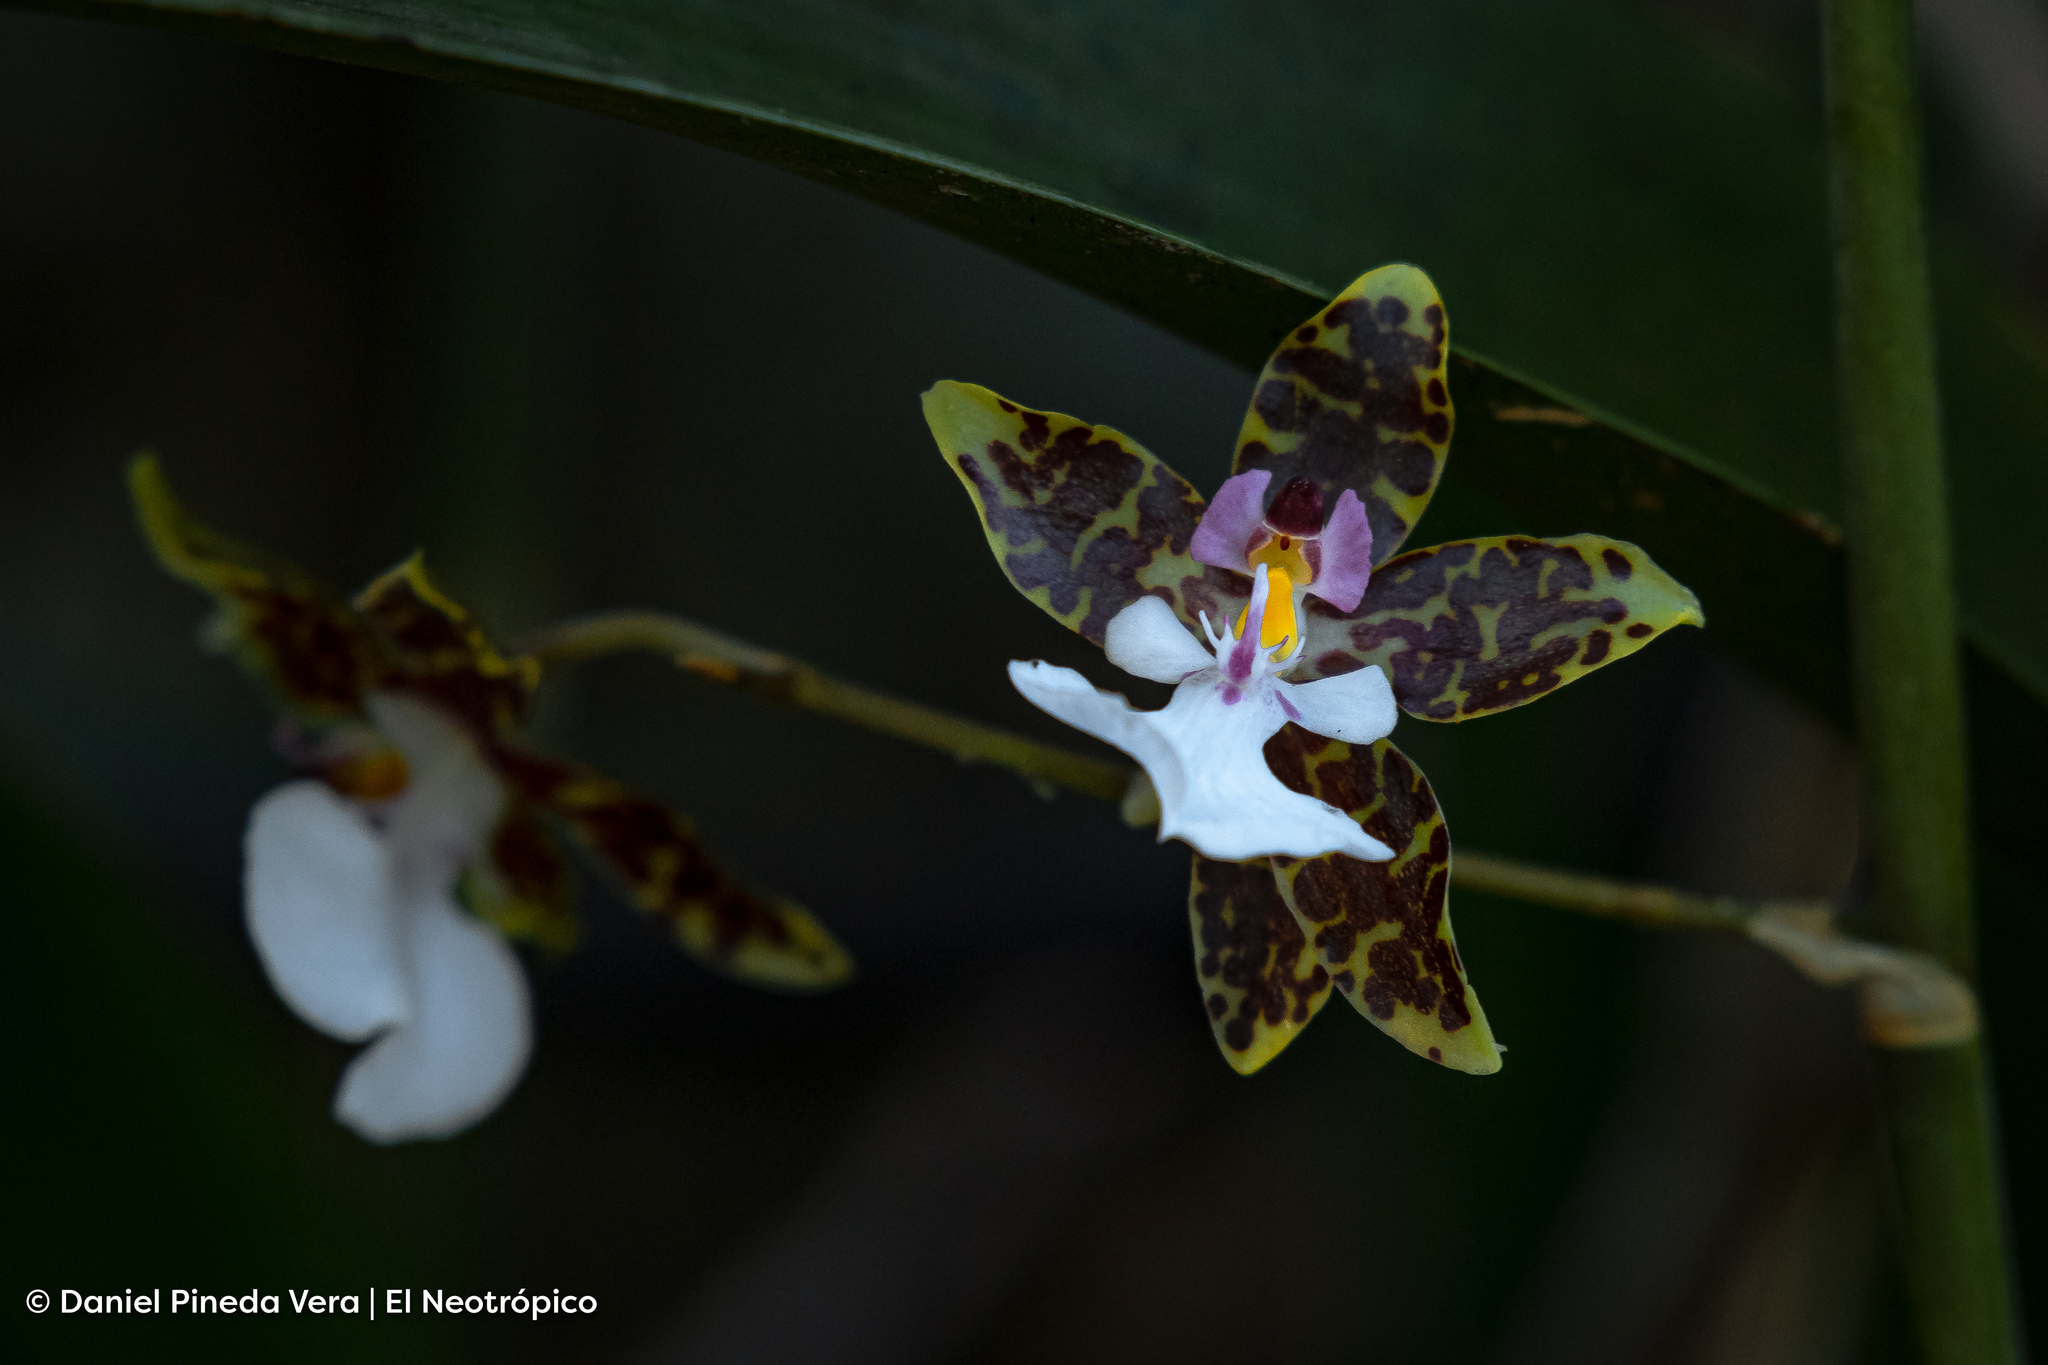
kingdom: Plantae
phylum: Tracheophyta
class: Liliopsida
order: Asparagales
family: Orchidaceae
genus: Oncidium
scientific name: Oncidium leucochilum
